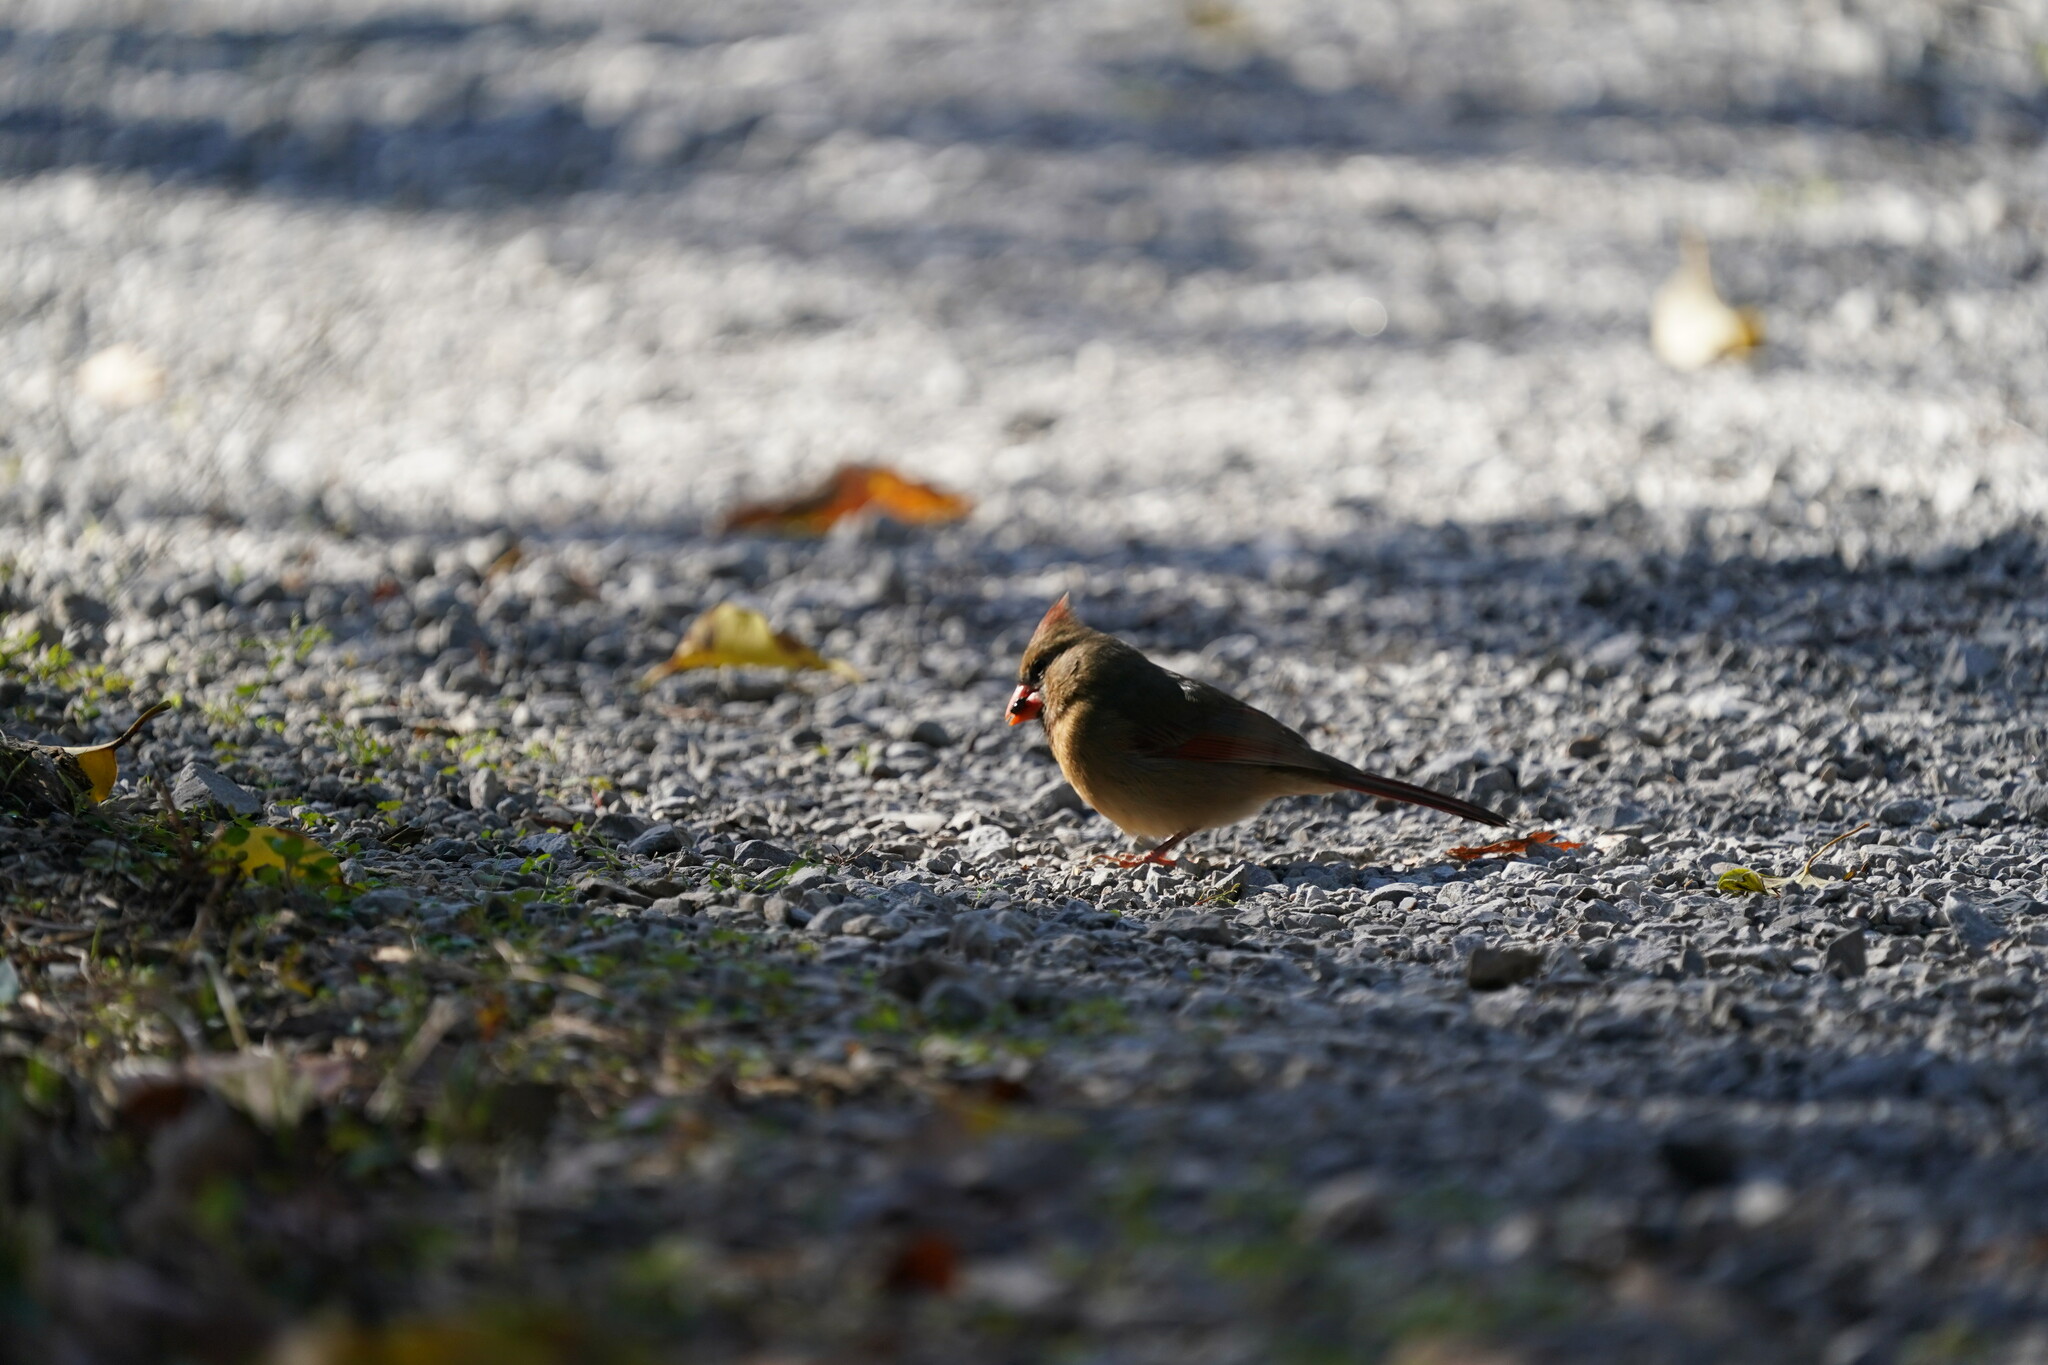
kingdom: Animalia
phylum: Chordata
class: Aves
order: Passeriformes
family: Cardinalidae
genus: Cardinalis
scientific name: Cardinalis cardinalis
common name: Northern cardinal
